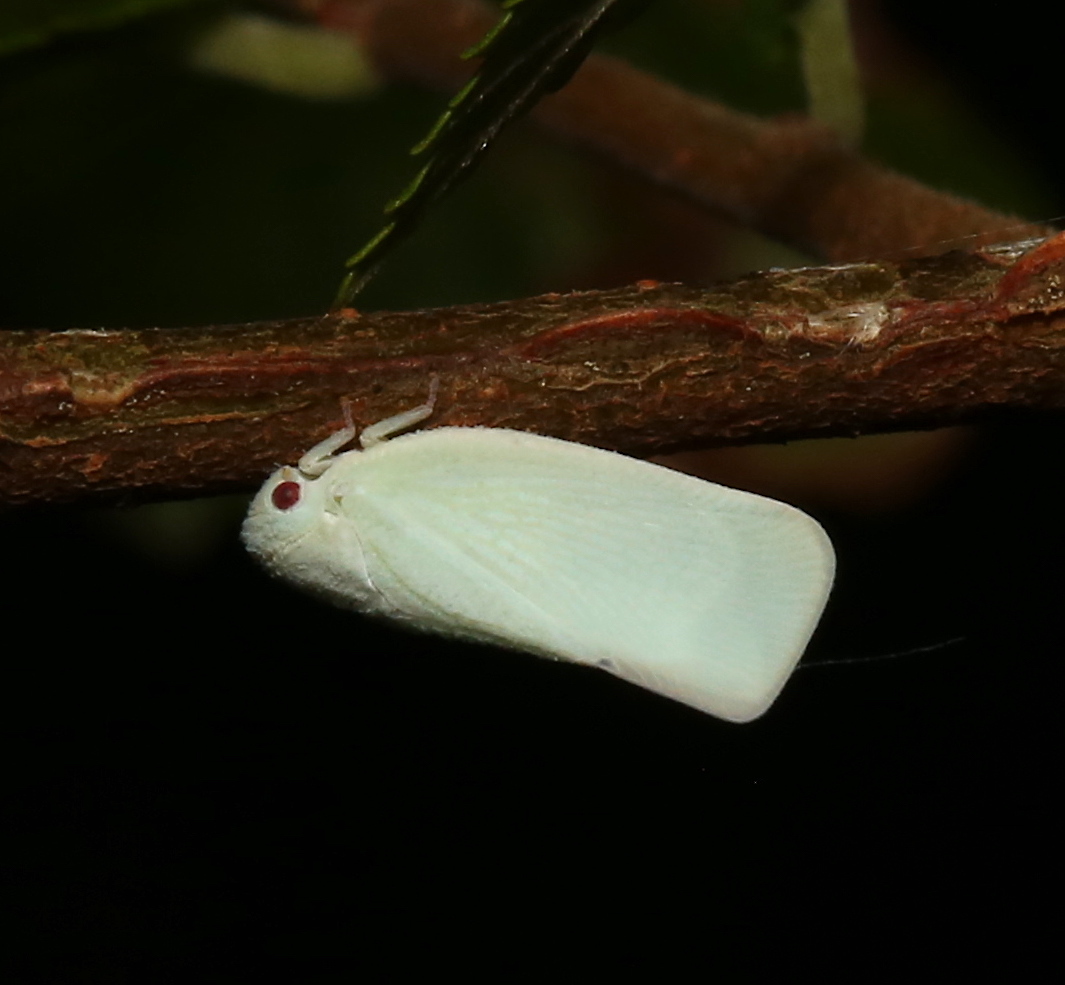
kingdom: Animalia
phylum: Arthropoda
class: Insecta
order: Hemiptera
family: Flatidae
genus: Flatormenis
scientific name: Flatormenis proxima
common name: Northern flatid planthopper
